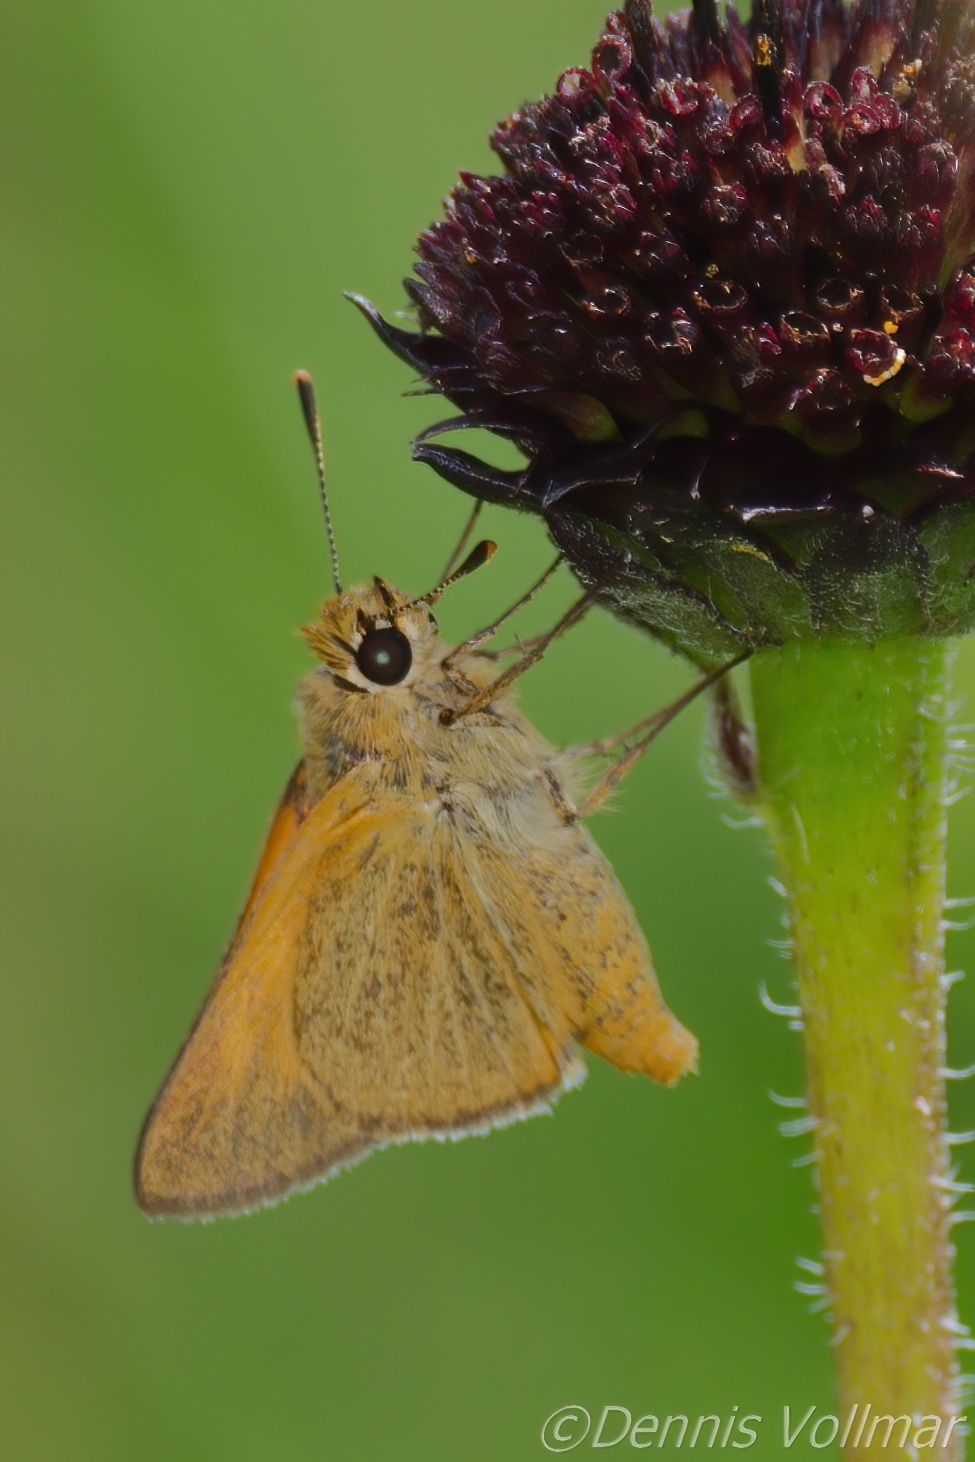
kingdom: Animalia
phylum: Arthropoda
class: Insecta
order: Lepidoptera
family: Hesperiidae
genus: Atrytone
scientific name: Atrytone arogos
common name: Arogos skipper
